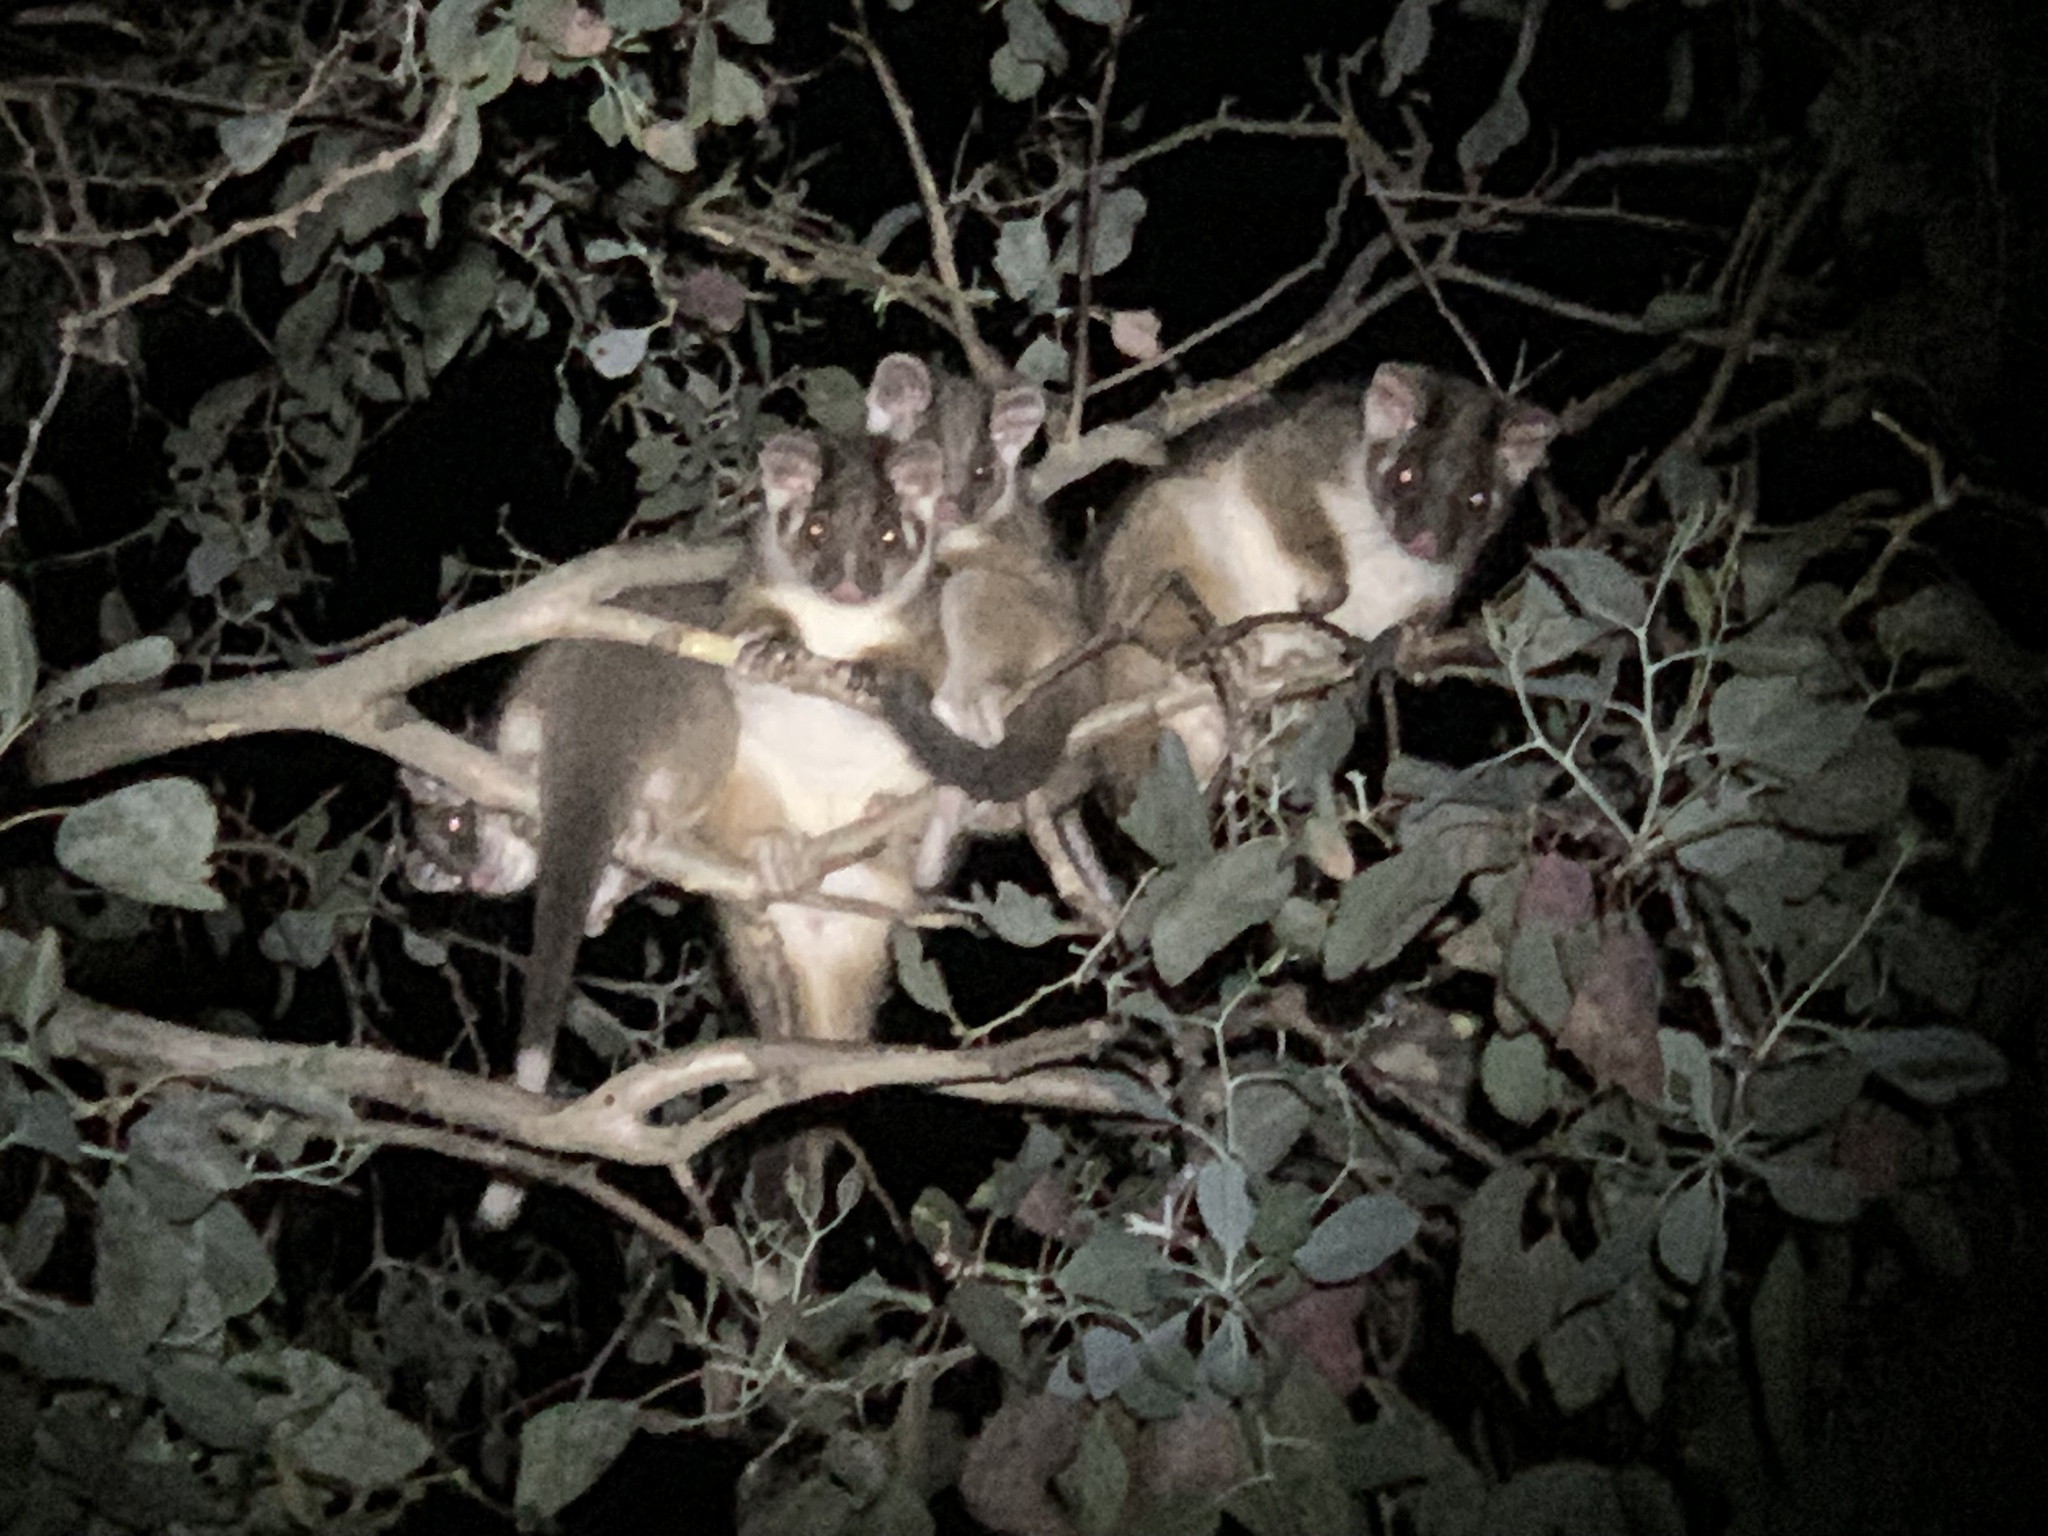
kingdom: Animalia
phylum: Chordata
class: Mammalia
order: Diprotodontia
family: Pseudocheiridae
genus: Pseudocheirus
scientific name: Pseudocheirus peregrinus
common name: Common ringtail possum
